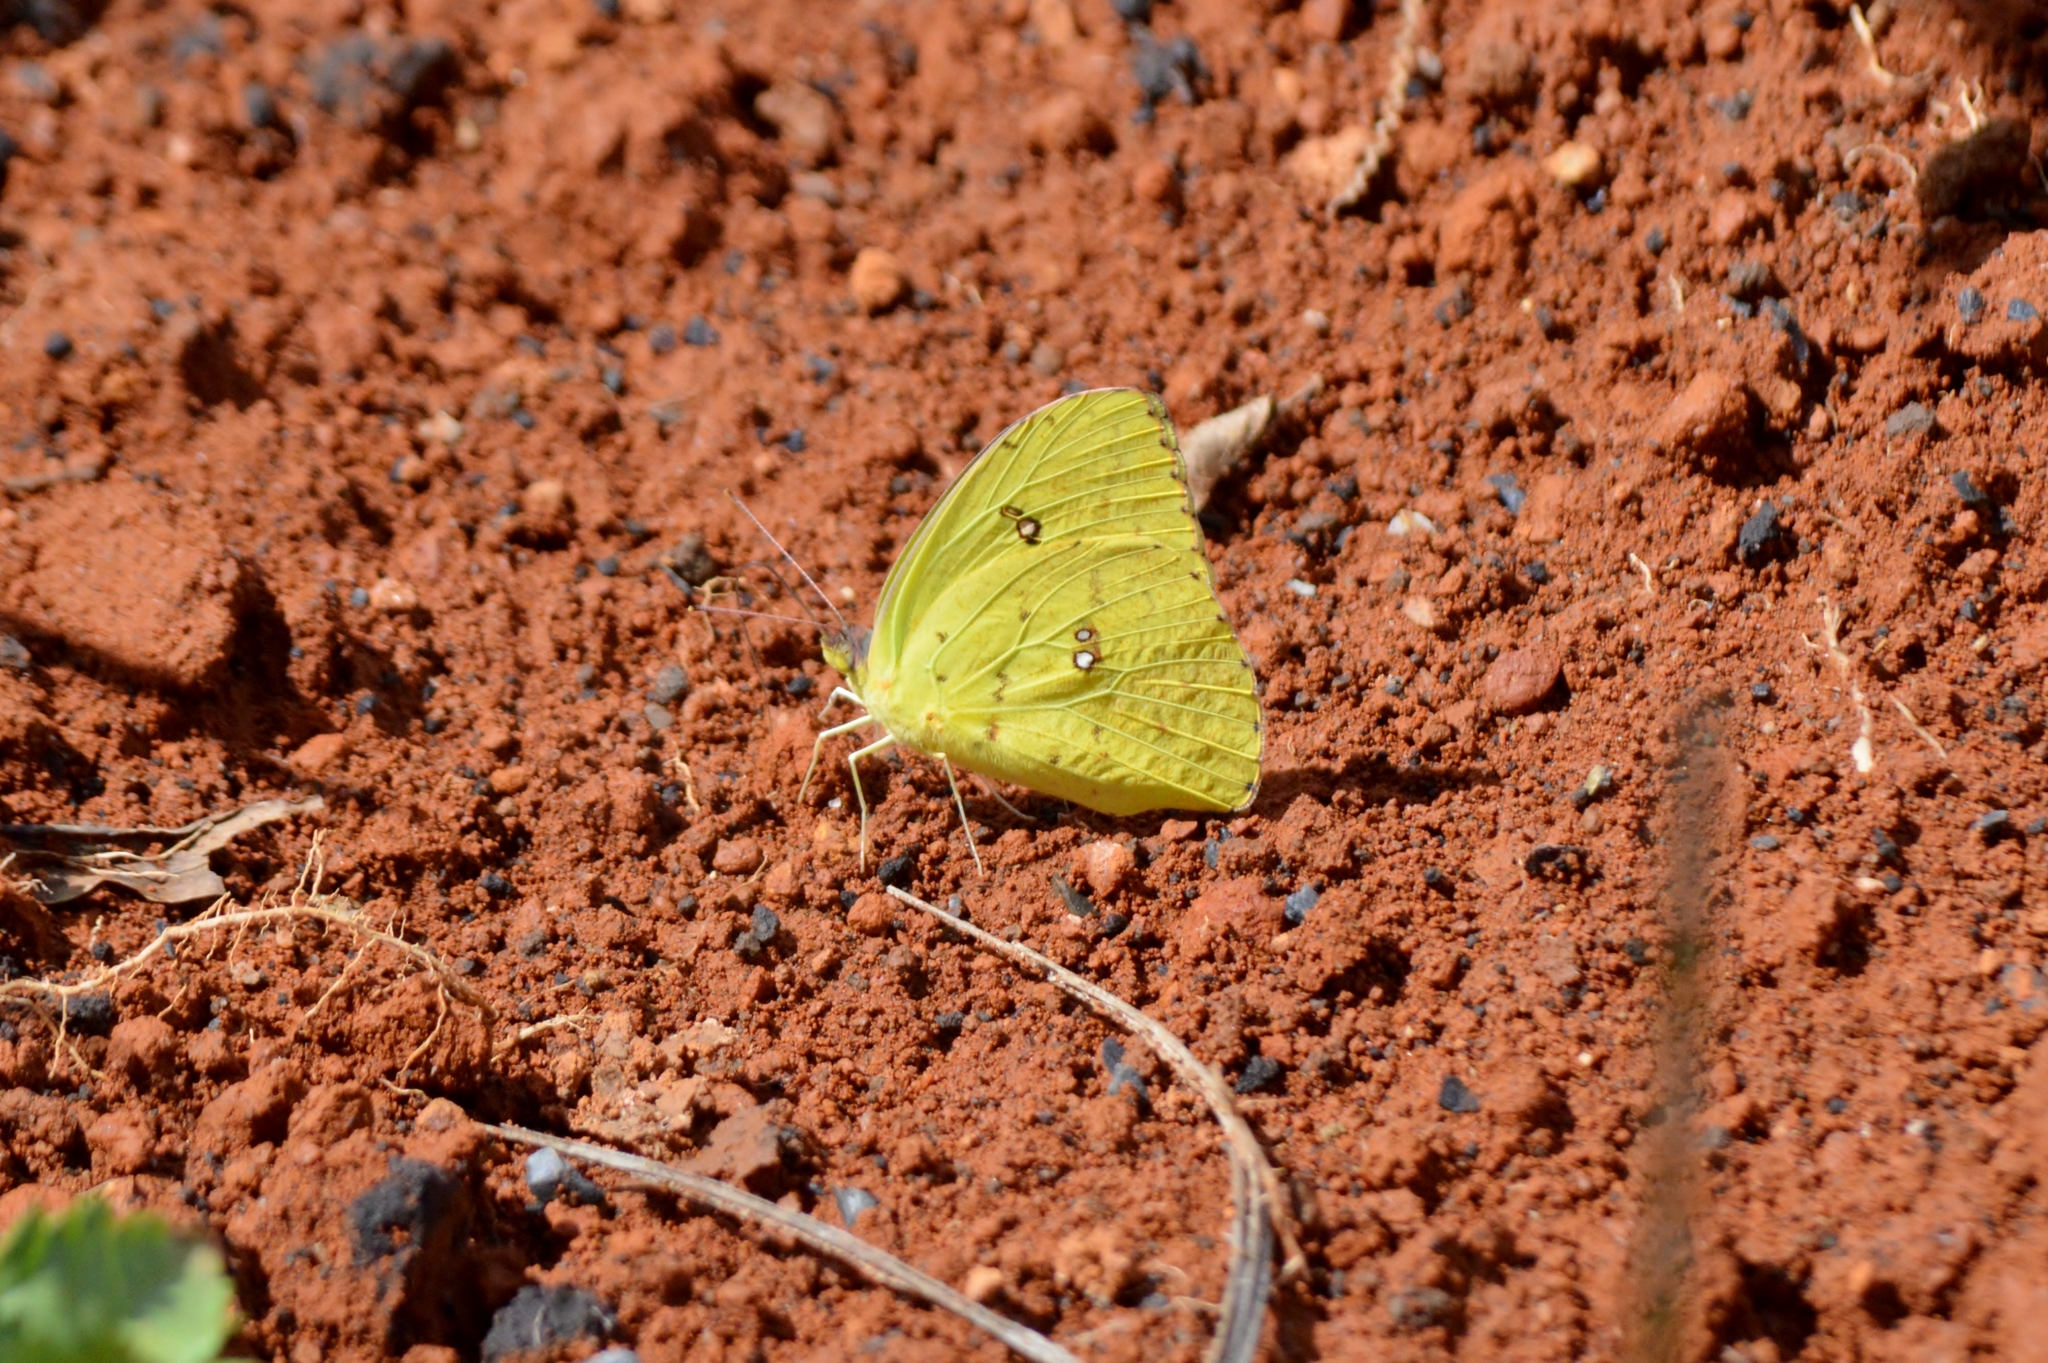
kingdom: Animalia
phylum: Arthropoda
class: Insecta
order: Lepidoptera
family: Pieridae
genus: Phoebis
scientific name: Phoebis marcellina
